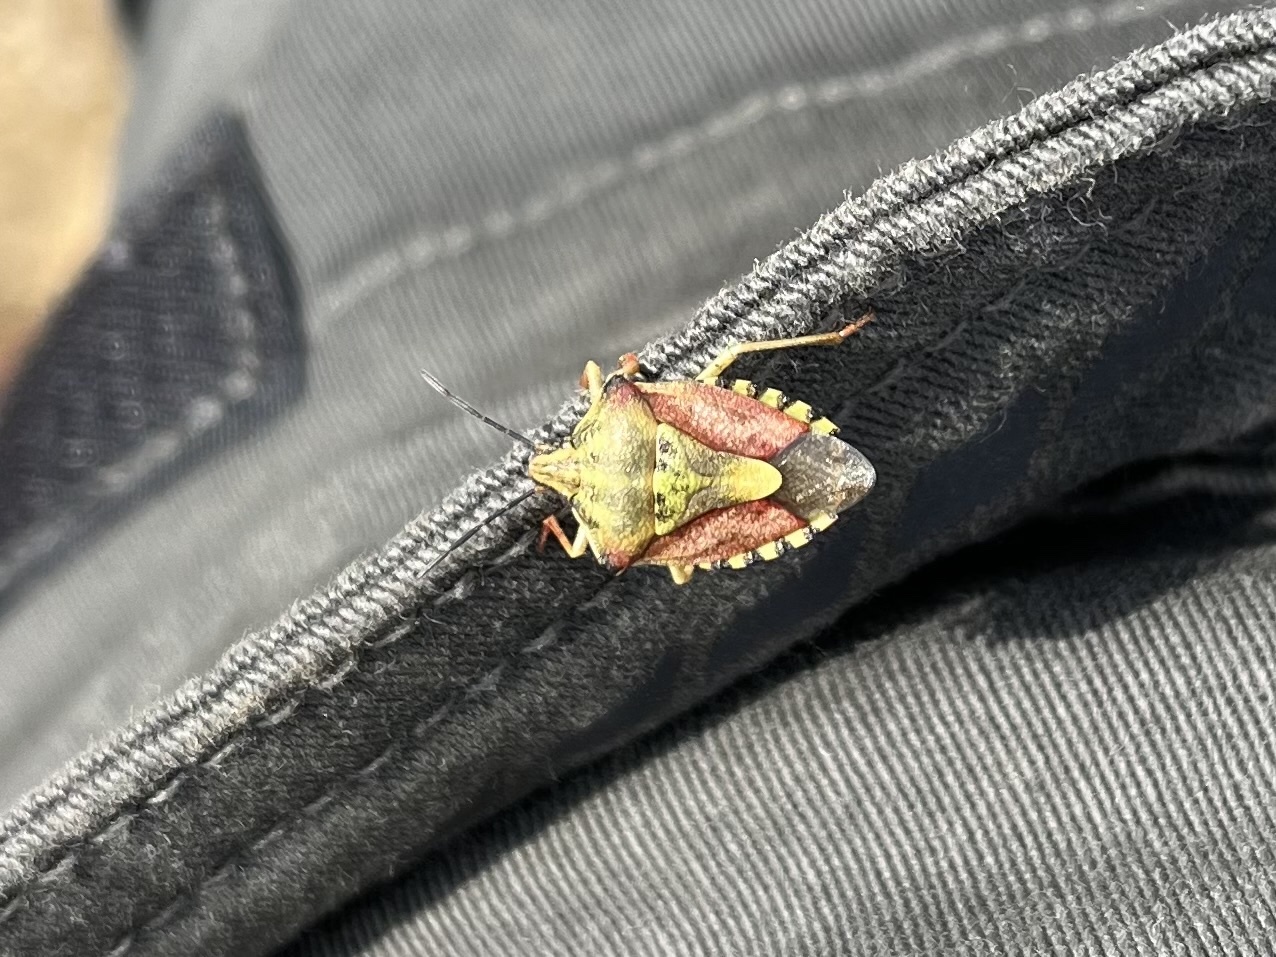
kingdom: Animalia
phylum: Arthropoda
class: Insecta
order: Hemiptera
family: Pentatomidae
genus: Carpocoris
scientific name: Carpocoris purpureipennis
